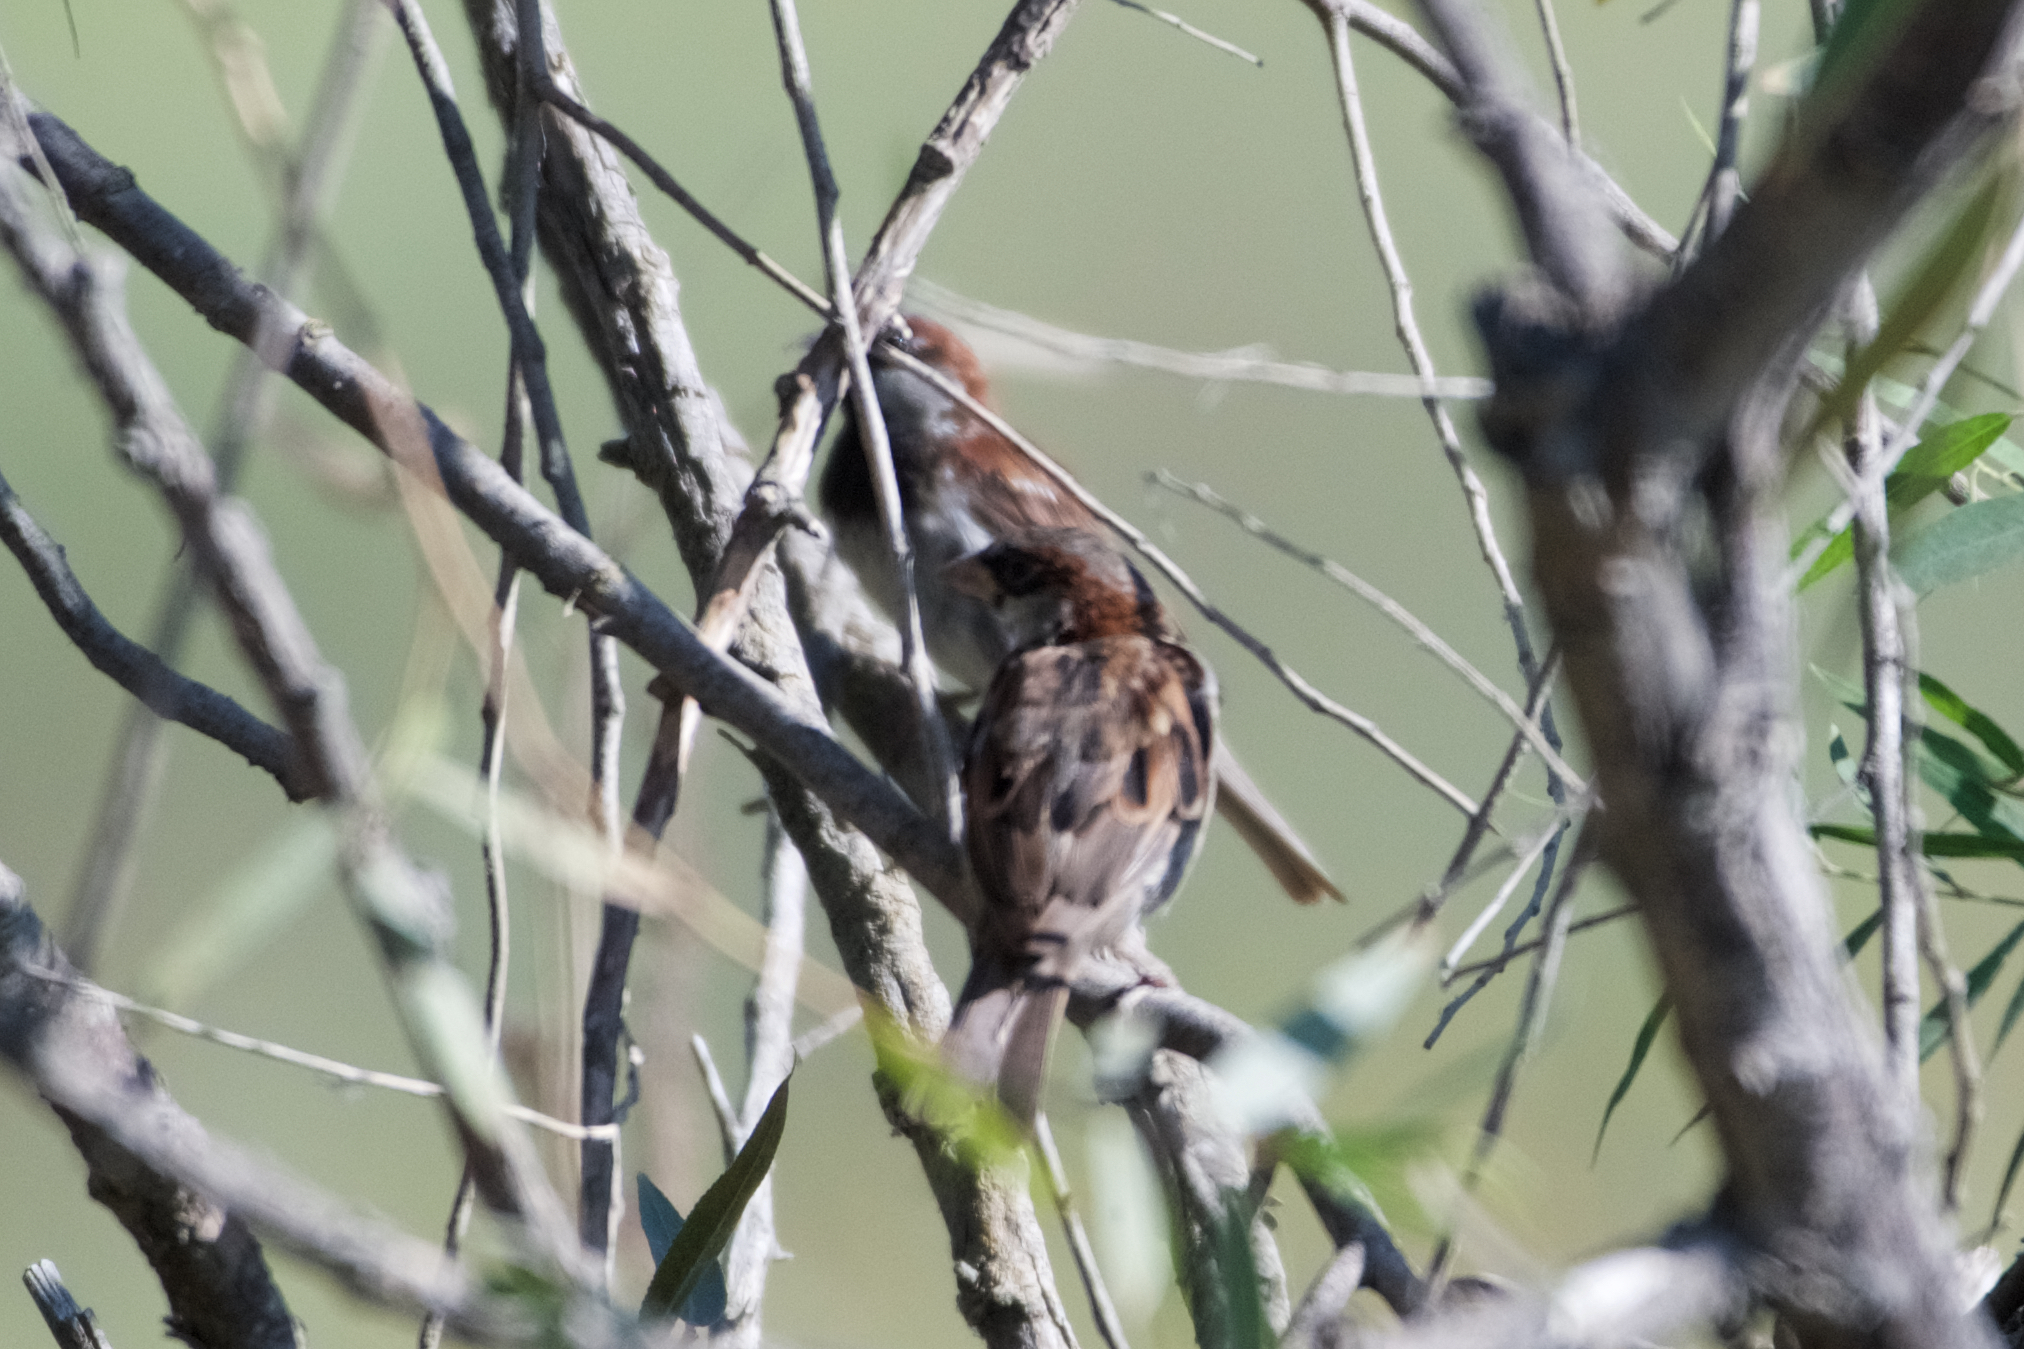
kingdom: Animalia
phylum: Chordata
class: Aves
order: Passeriformes
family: Passeridae
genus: Passer
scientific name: Passer domesticus
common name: House sparrow
